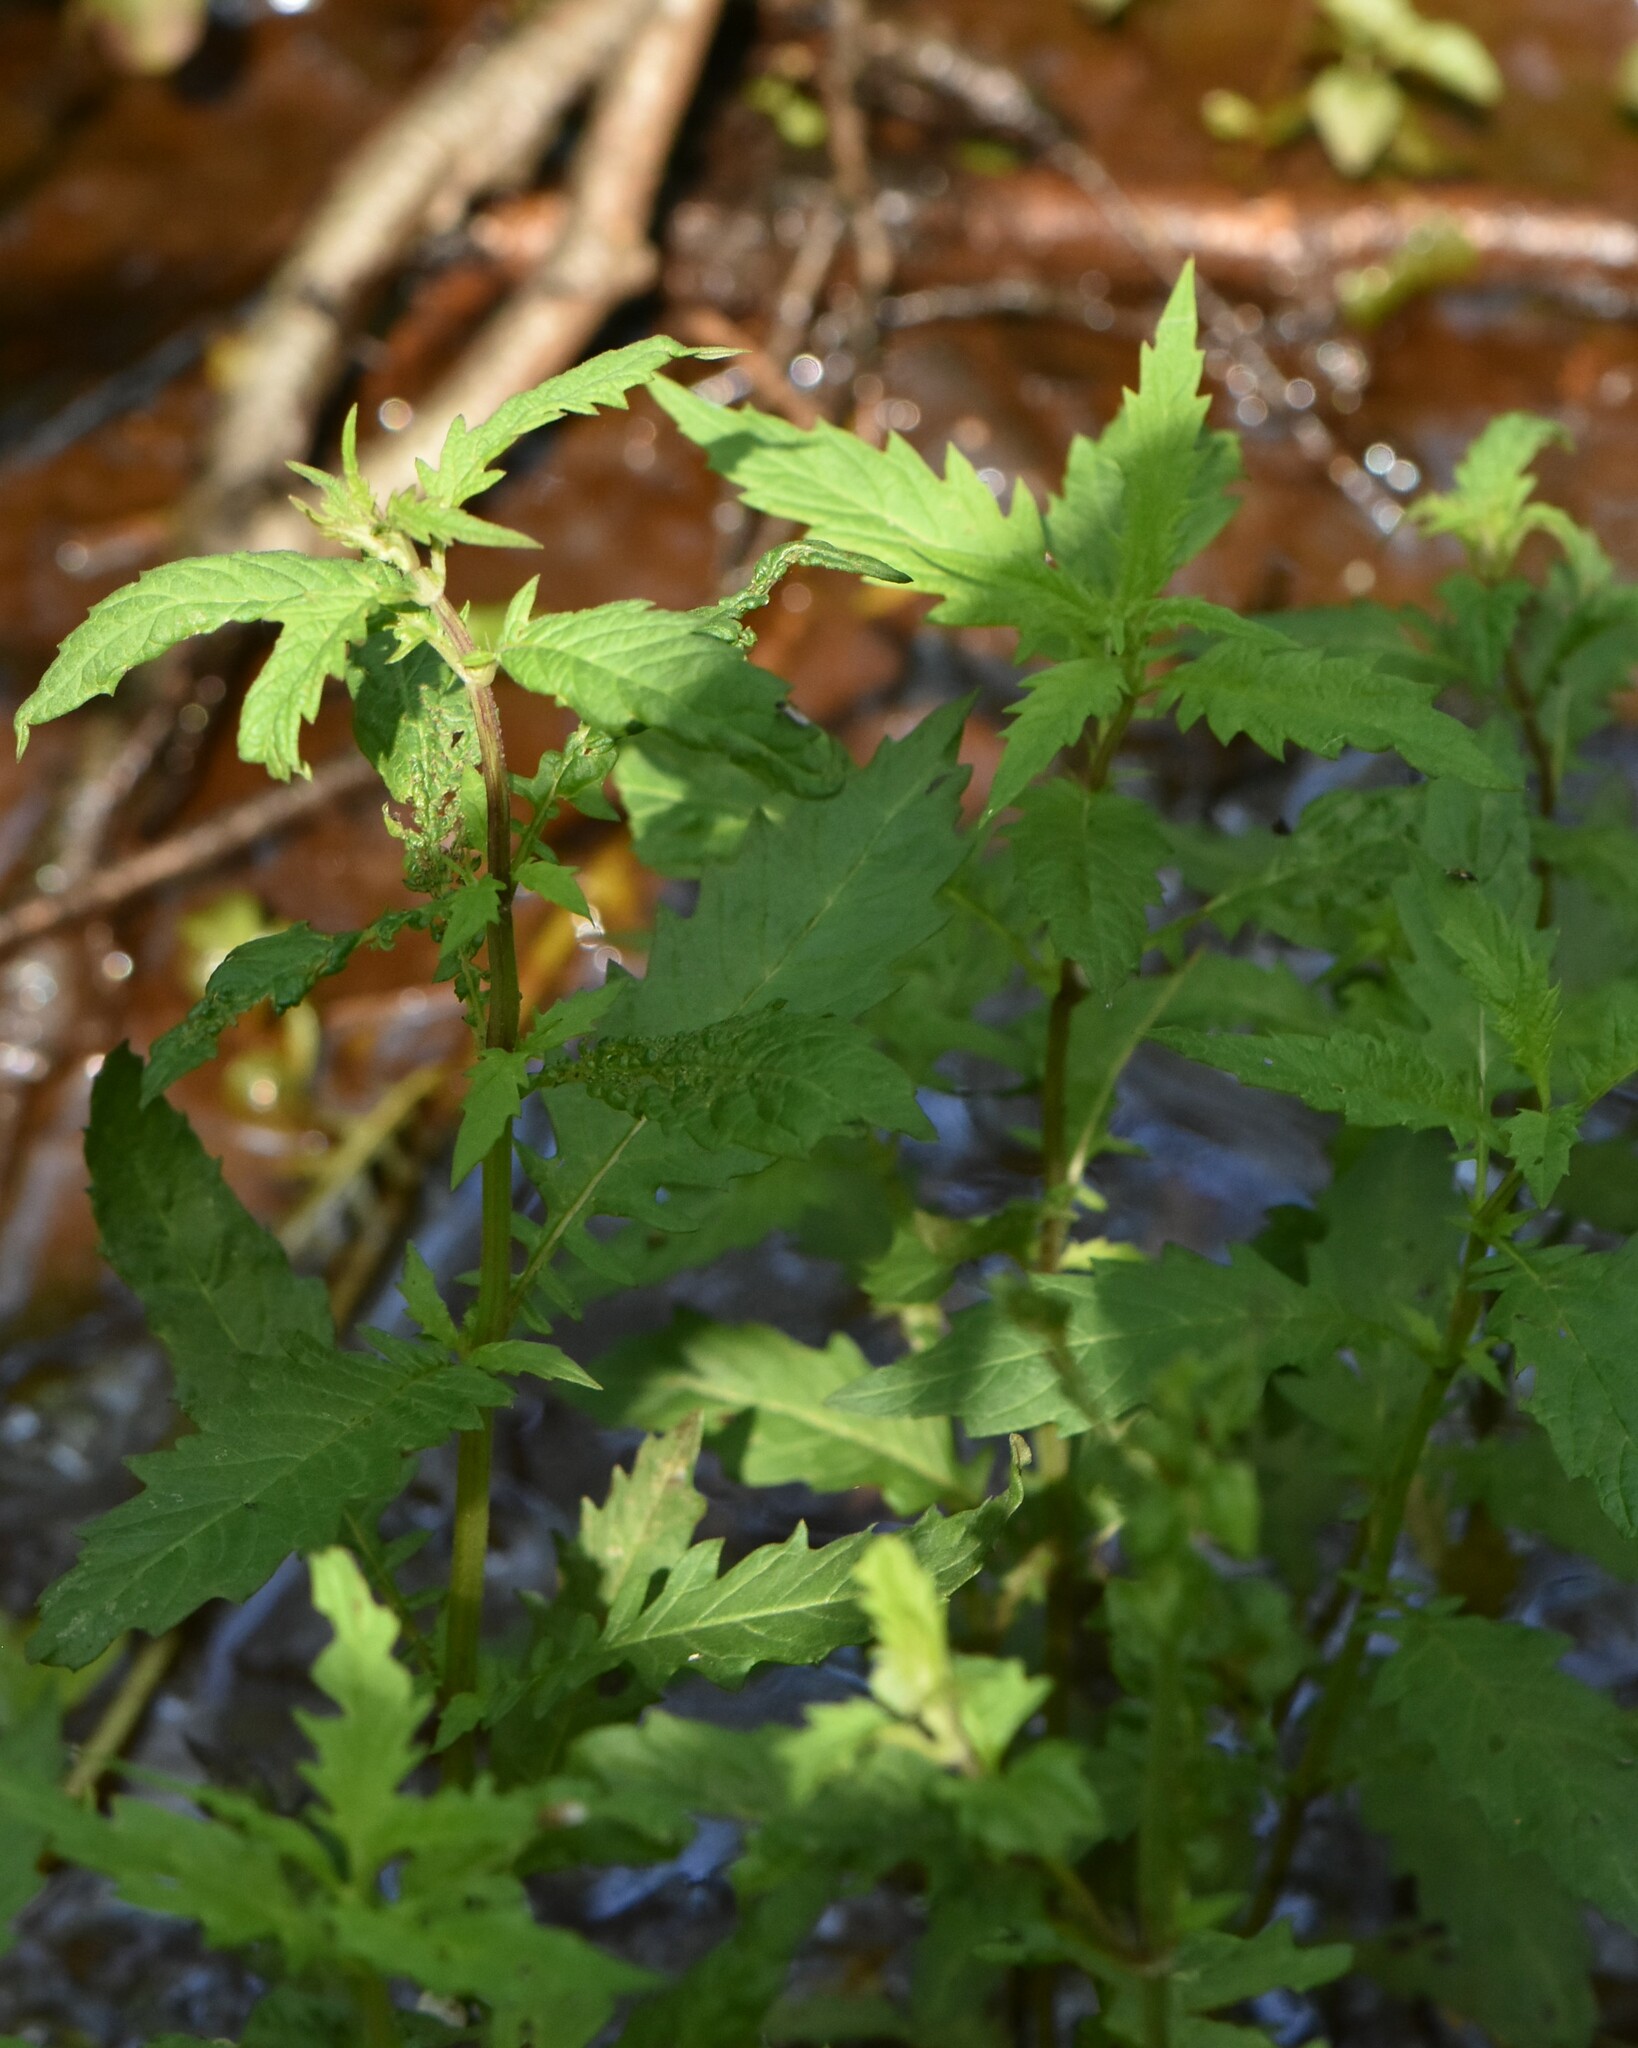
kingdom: Plantae
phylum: Tracheophyta
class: Magnoliopsida
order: Lamiales
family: Lamiaceae
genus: Lycopus
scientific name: Lycopus europaeus
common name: European bugleweed
